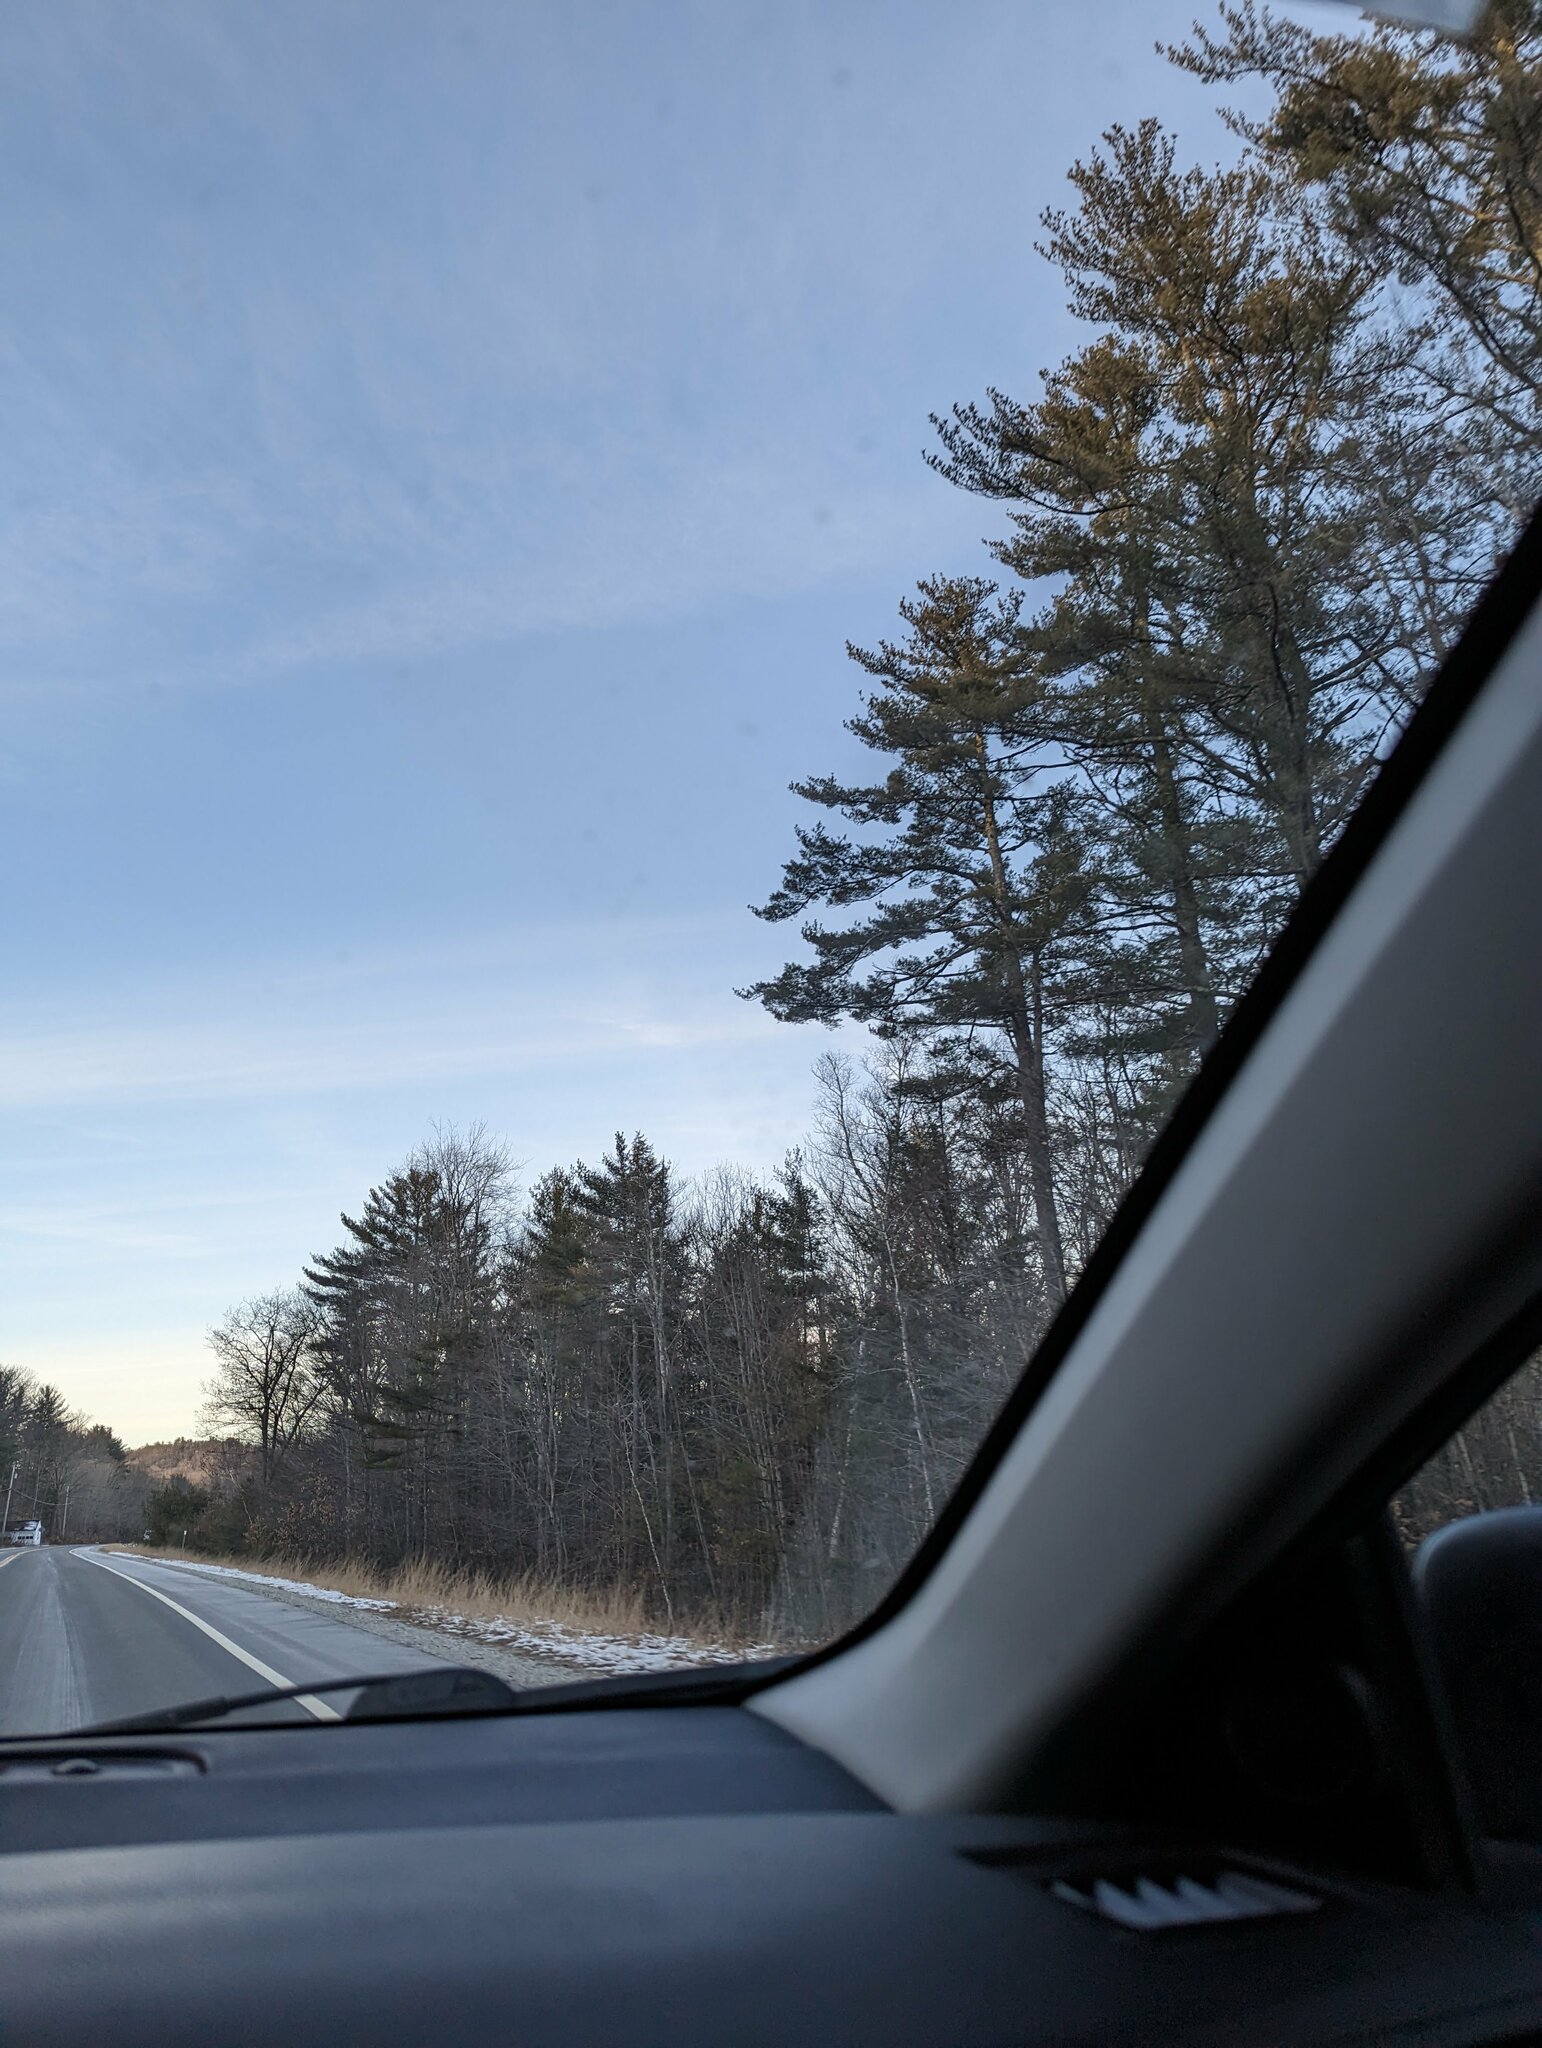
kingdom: Plantae
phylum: Tracheophyta
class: Pinopsida
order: Pinales
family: Pinaceae
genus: Pinus
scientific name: Pinus strobus
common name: Weymouth pine
